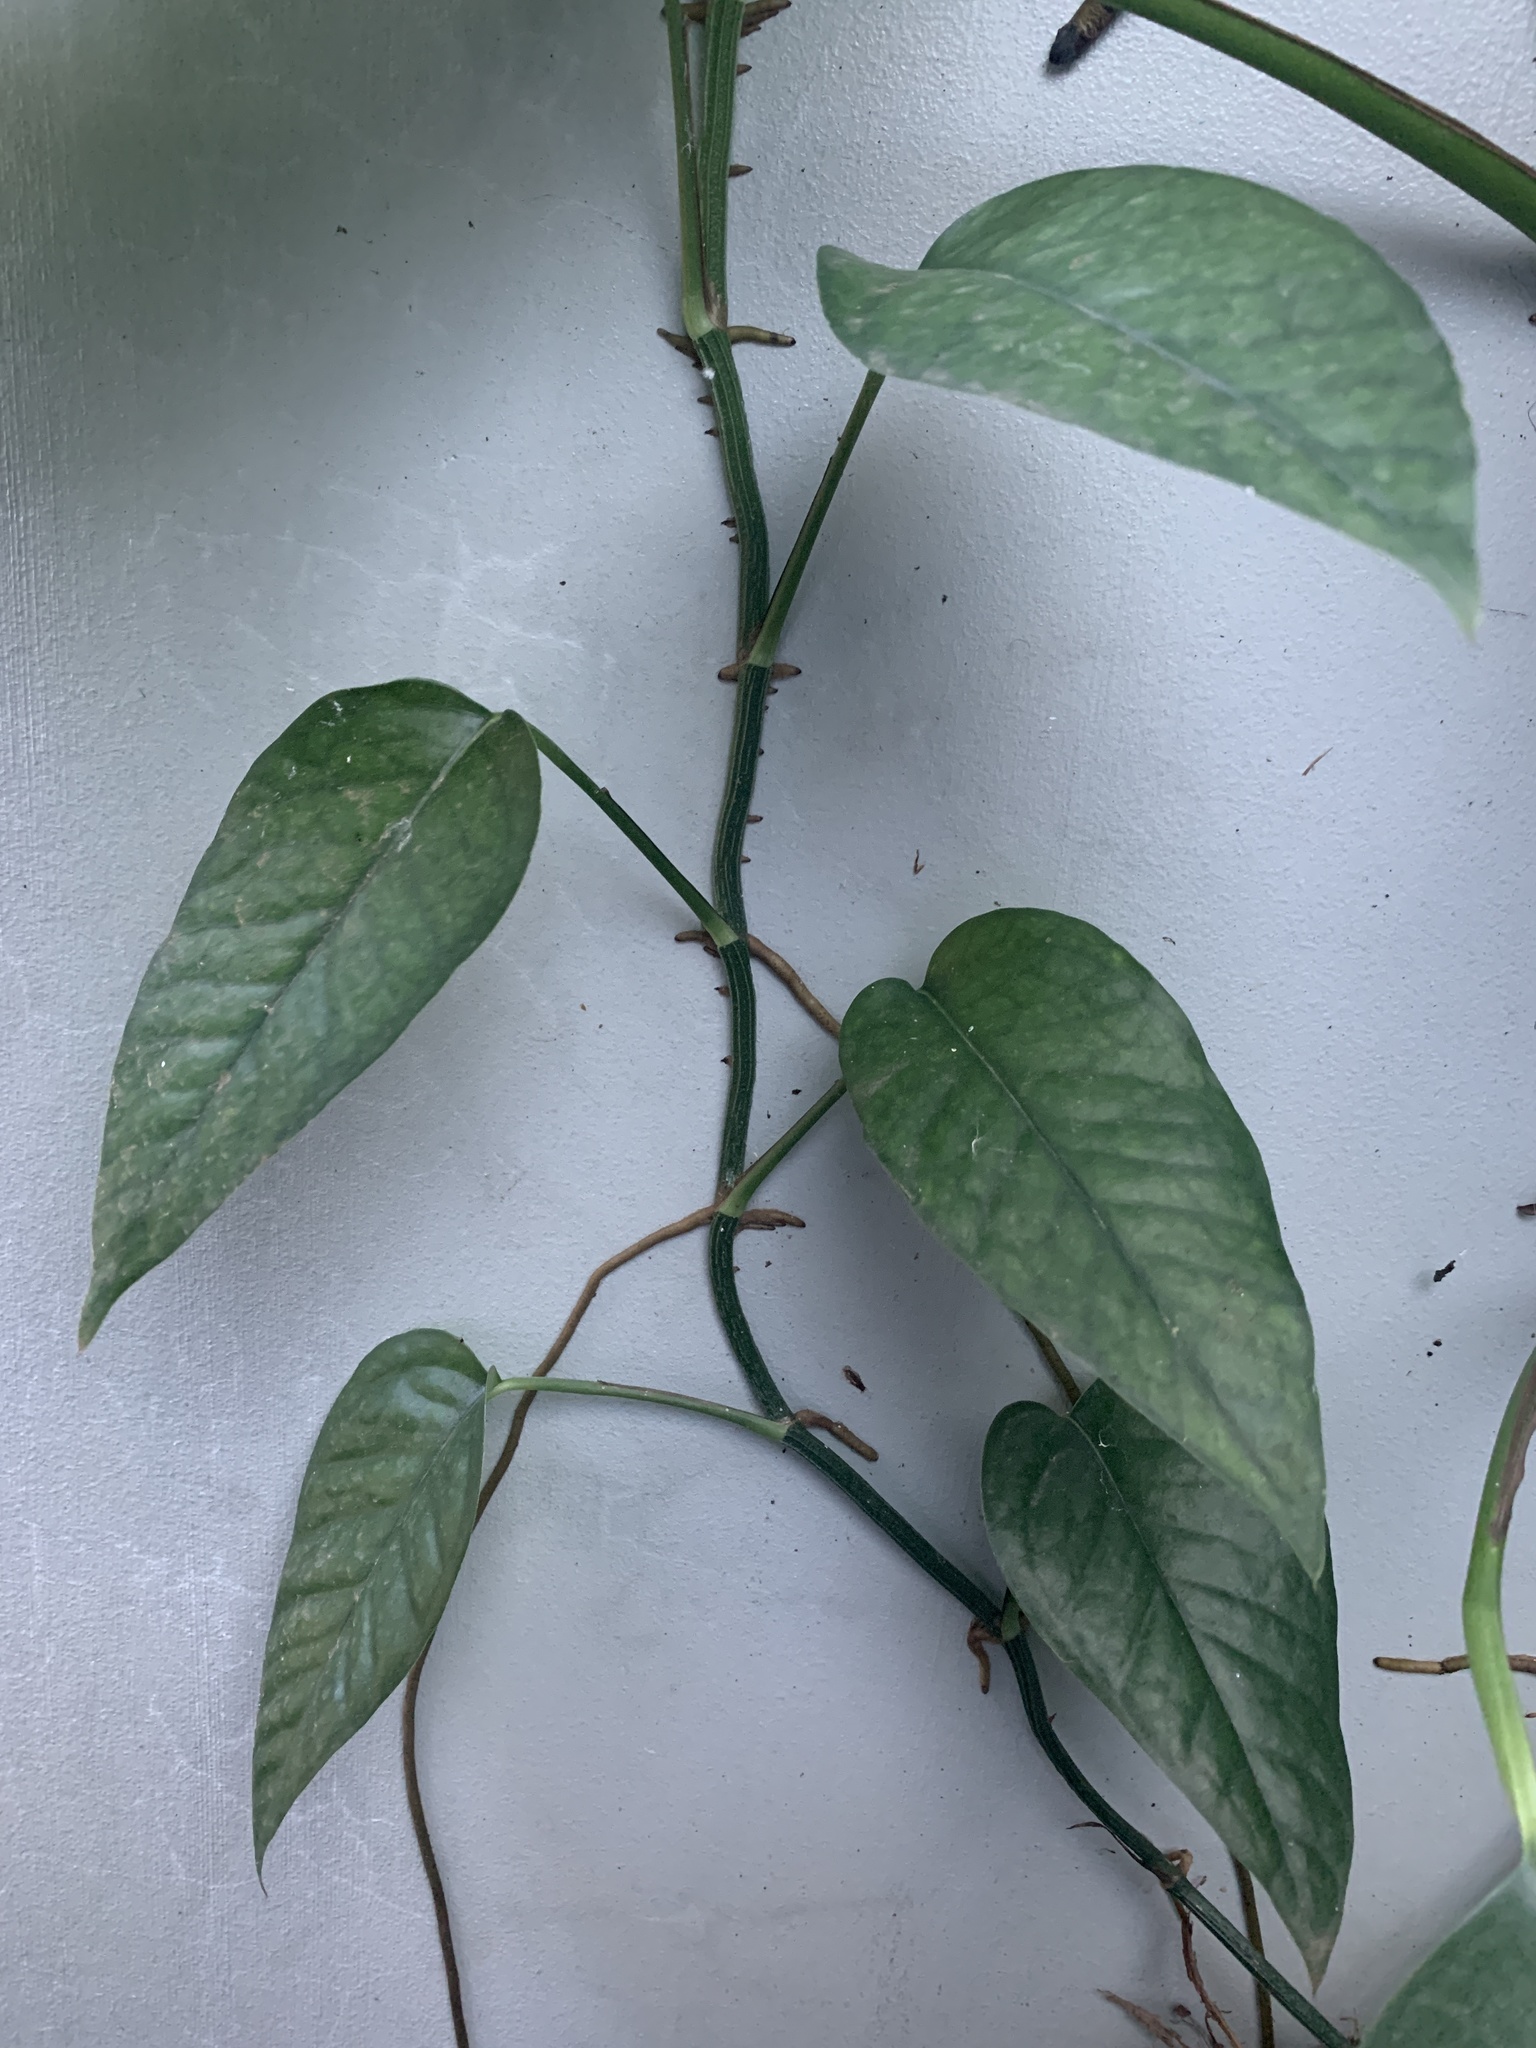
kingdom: Plantae
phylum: Tracheophyta
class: Liliopsida
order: Alismatales
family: Araceae
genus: Epipremnum
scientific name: Epipremnum pinnatum
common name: Centipede tongavine
